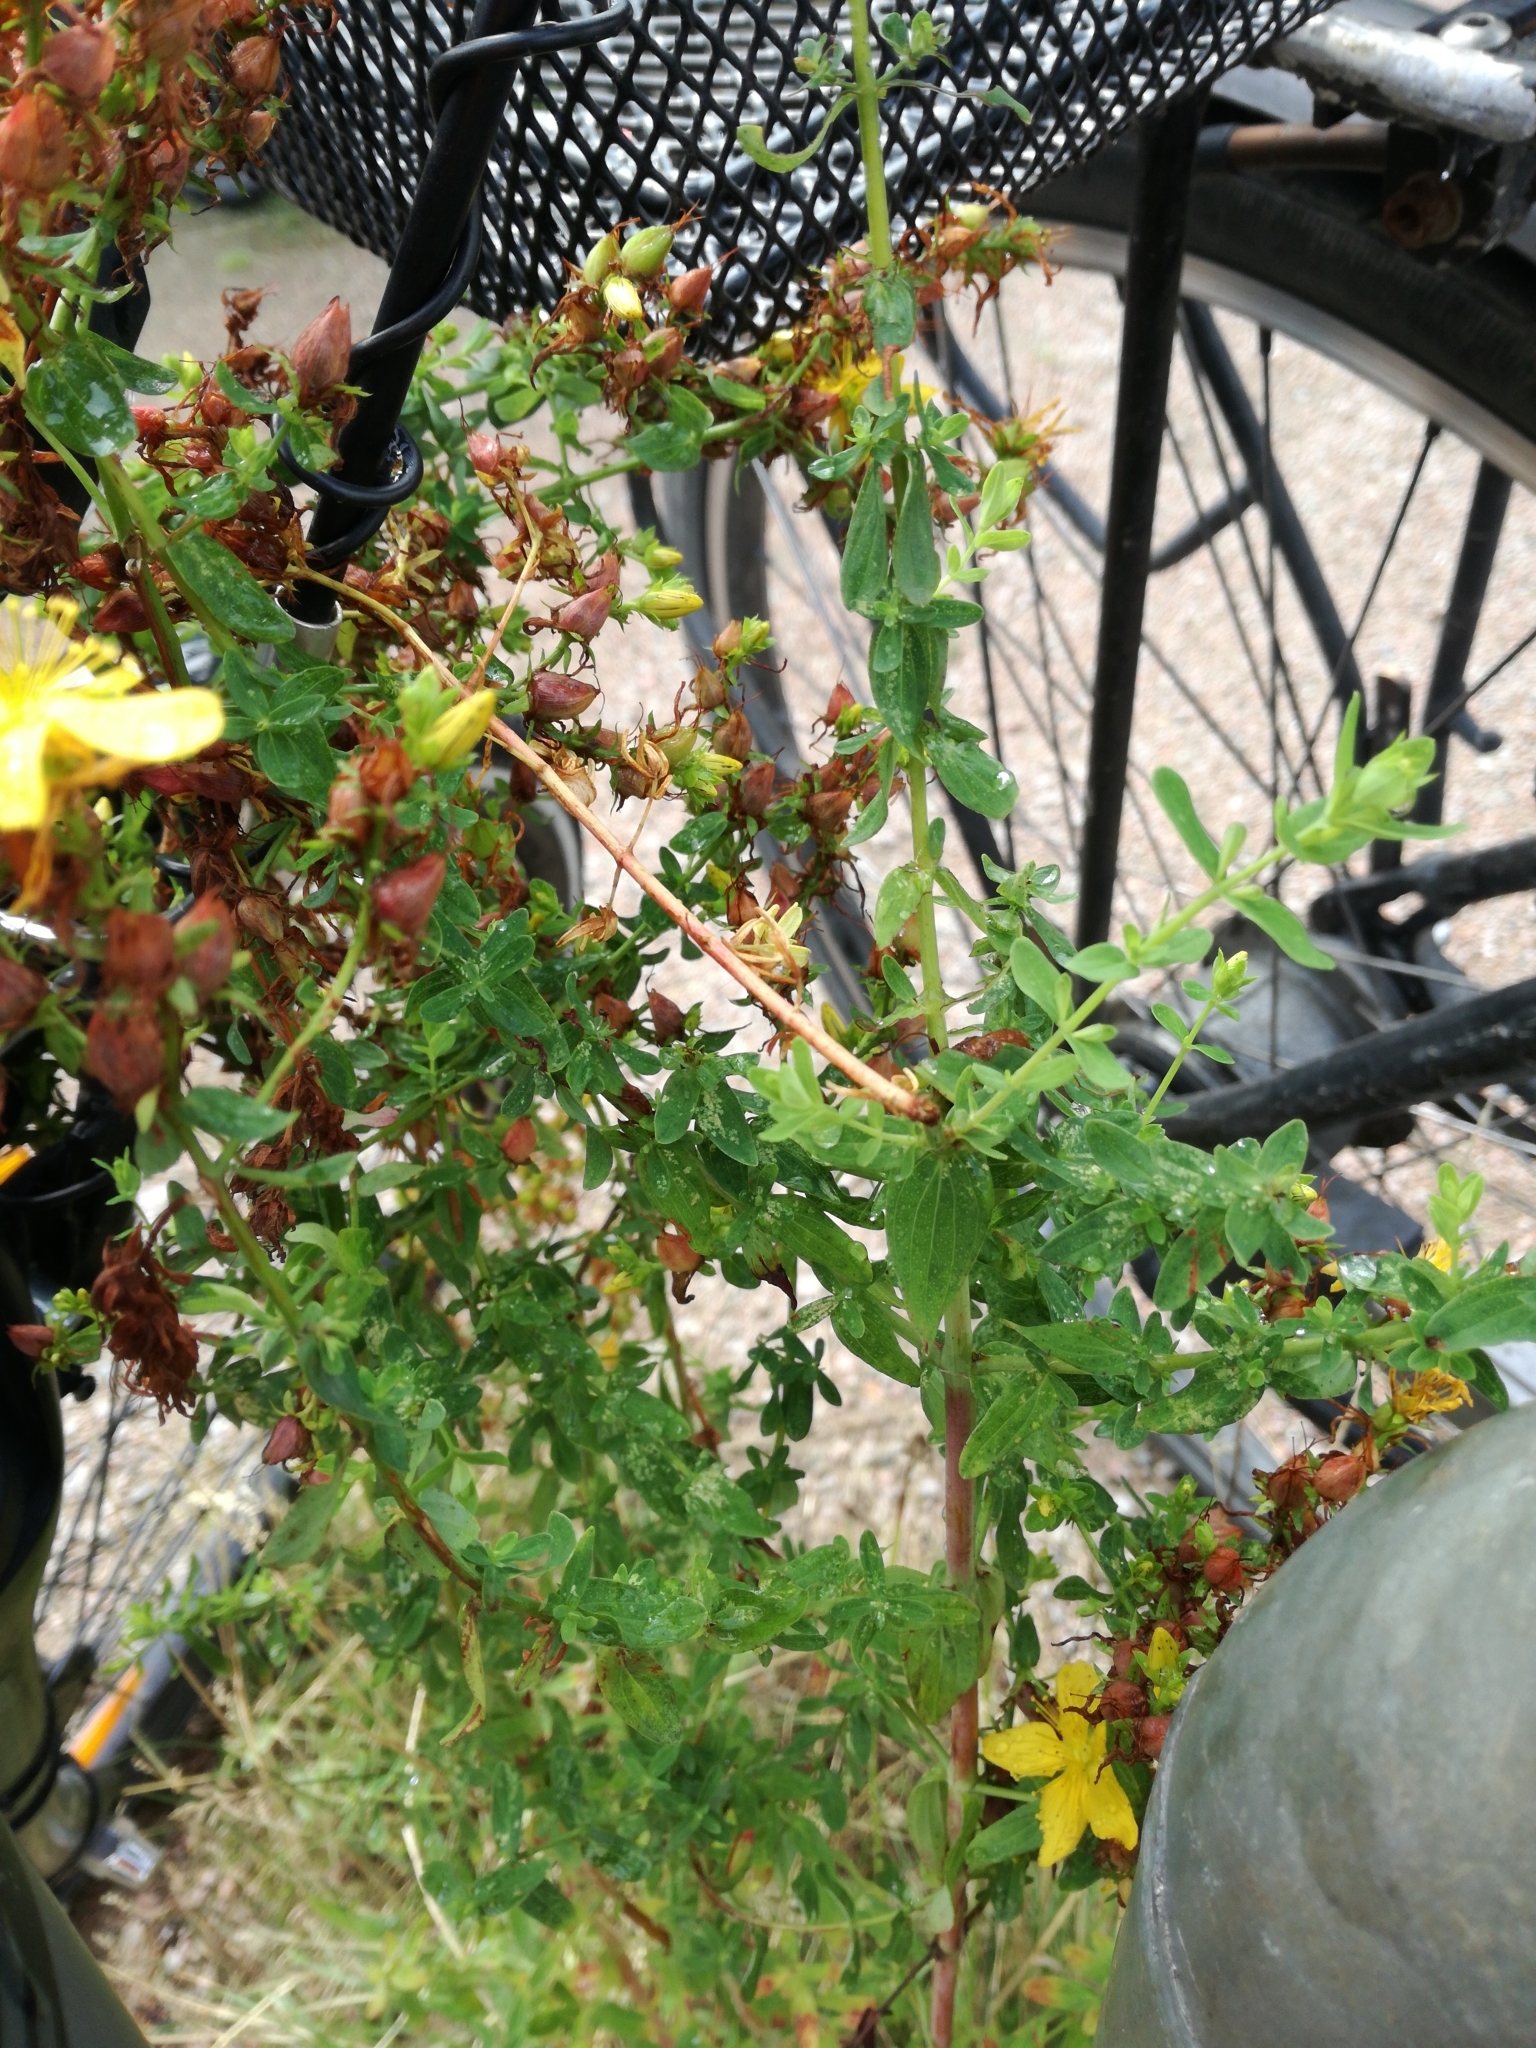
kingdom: Plantae
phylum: Tracheophyta
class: Magnoliopsida
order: Malpighiales
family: Hypericaceae
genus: Hypericum
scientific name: Hypericum perforatum
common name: Common st. johnswort
